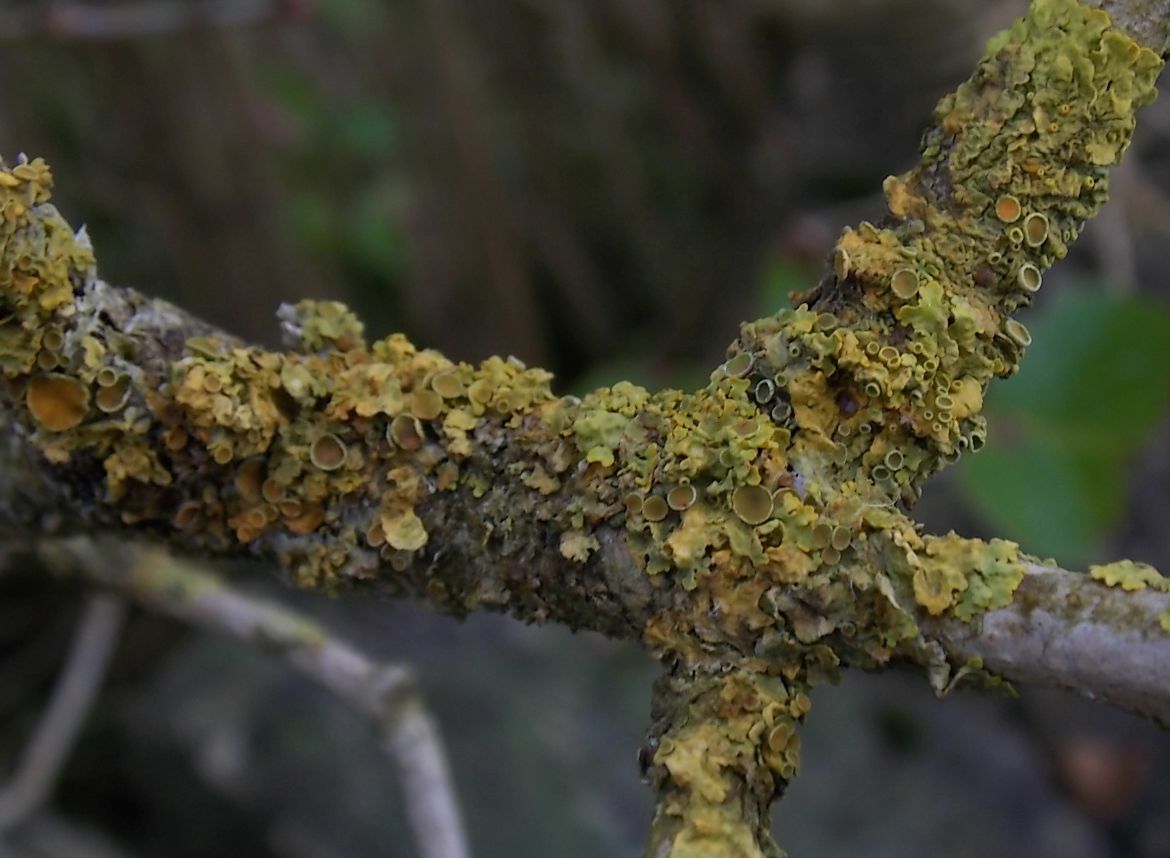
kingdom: Fungi
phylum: Ascomycota
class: Lecanoromycetes
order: Teloschistales
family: Teloschistaceae
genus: Xanthoria
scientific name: Xanthoria parietina
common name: Common orange lichen
